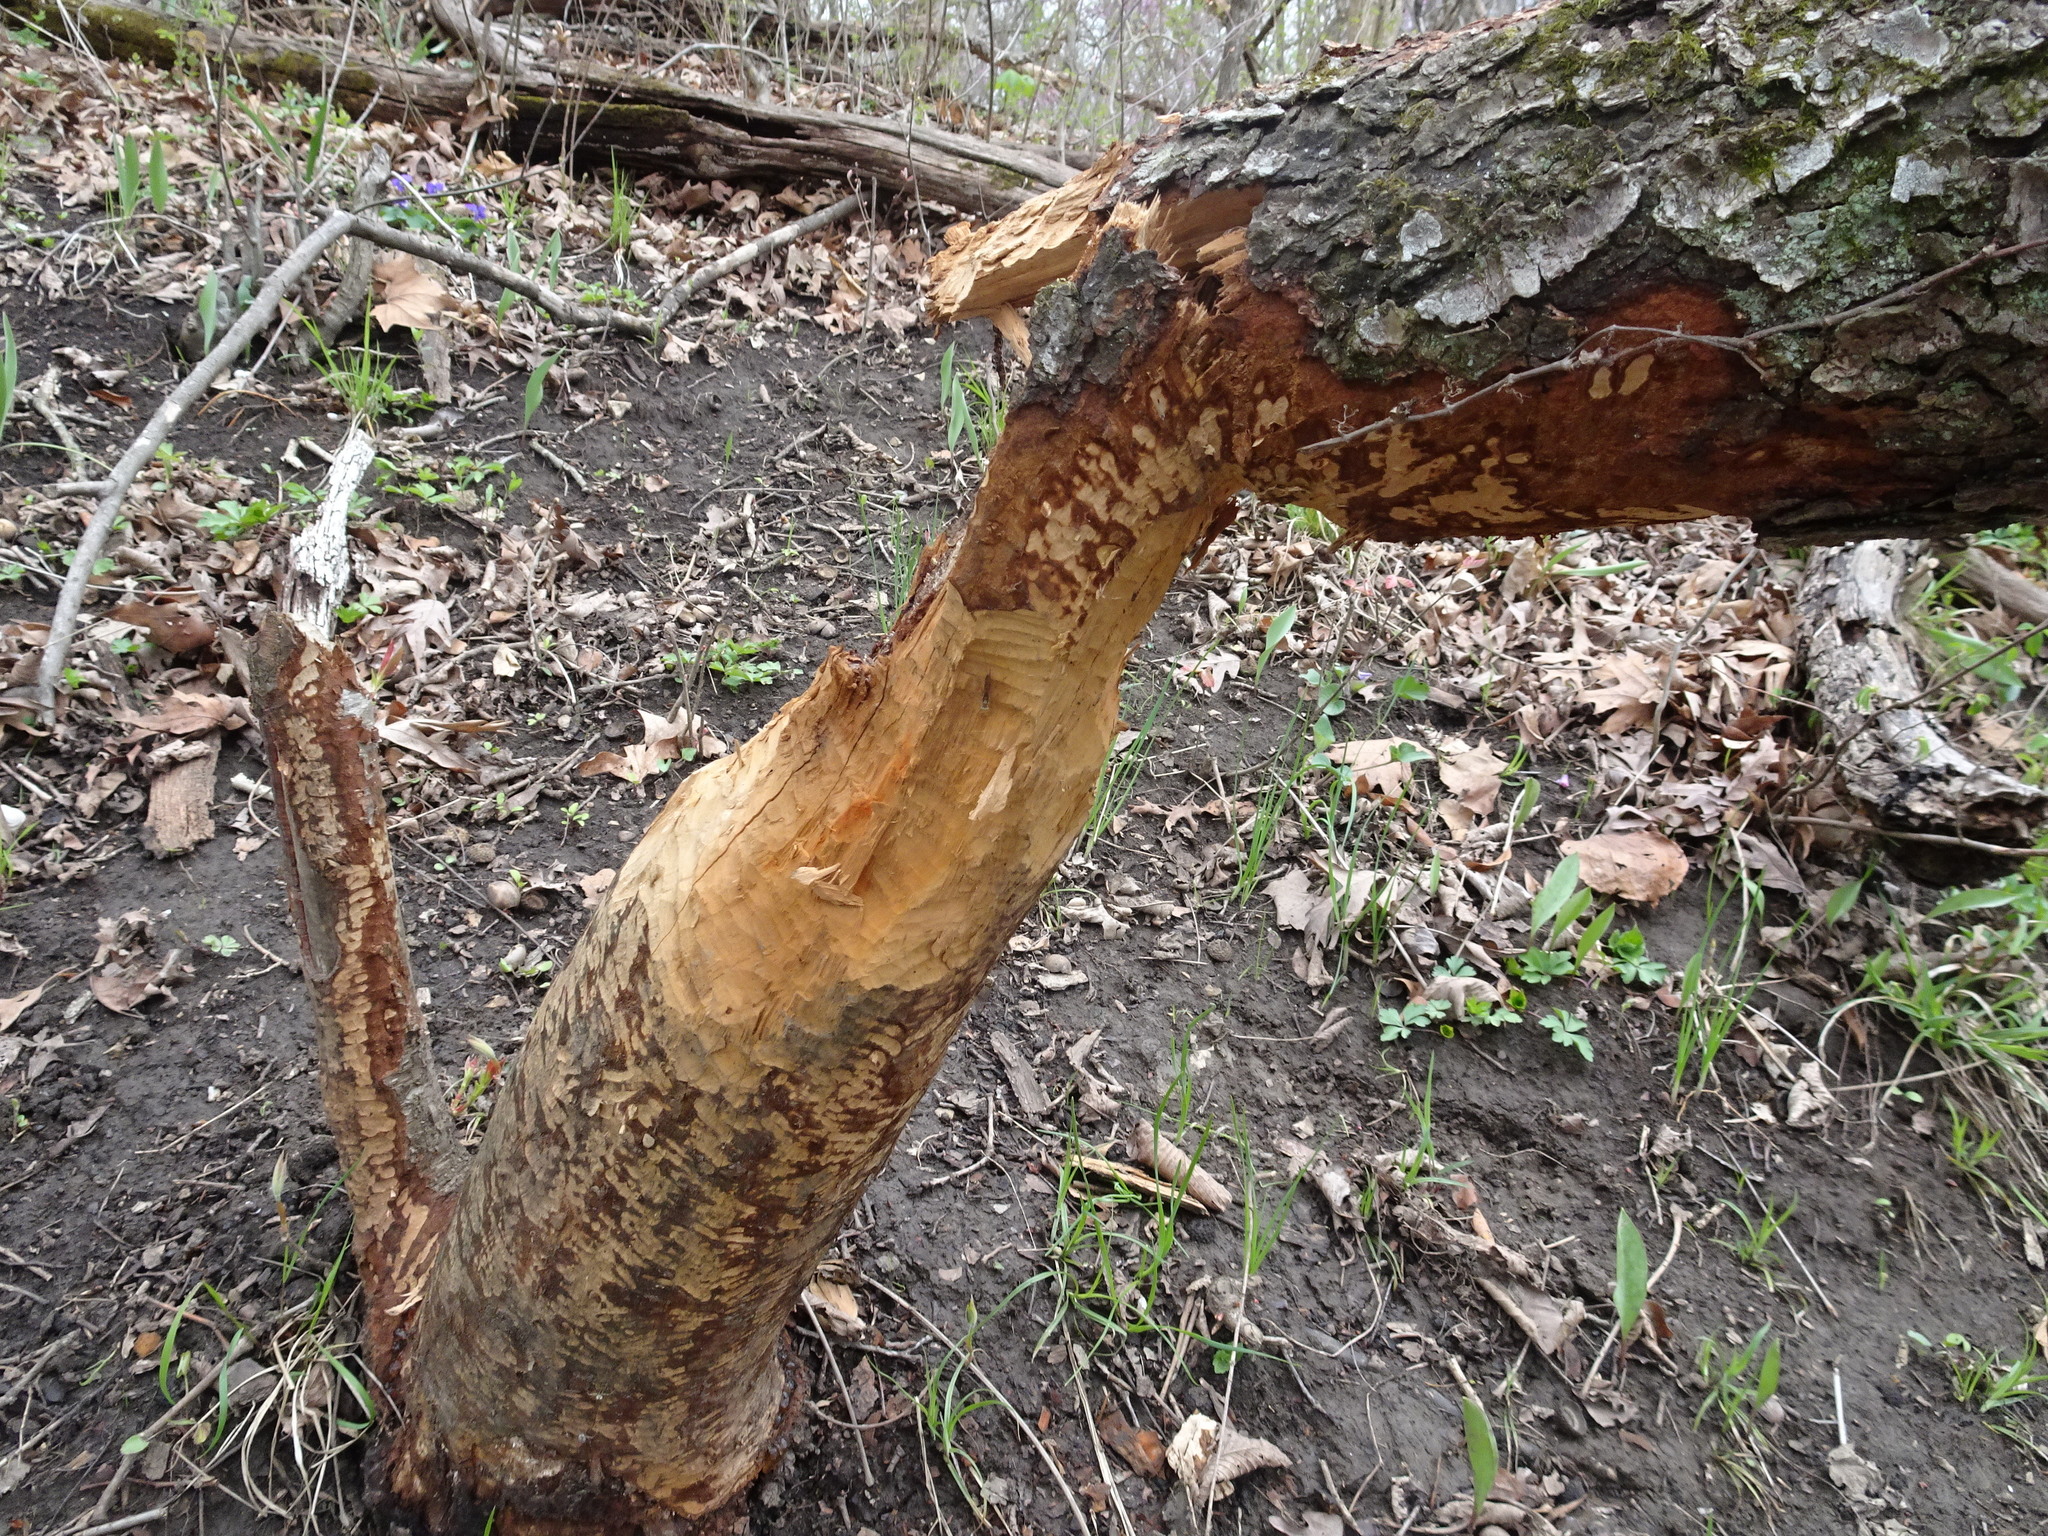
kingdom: Animalia
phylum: Chordata
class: Mammalia
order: Rodentia
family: Castoridae
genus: Castor
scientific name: Castor canadensis
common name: American beaver
